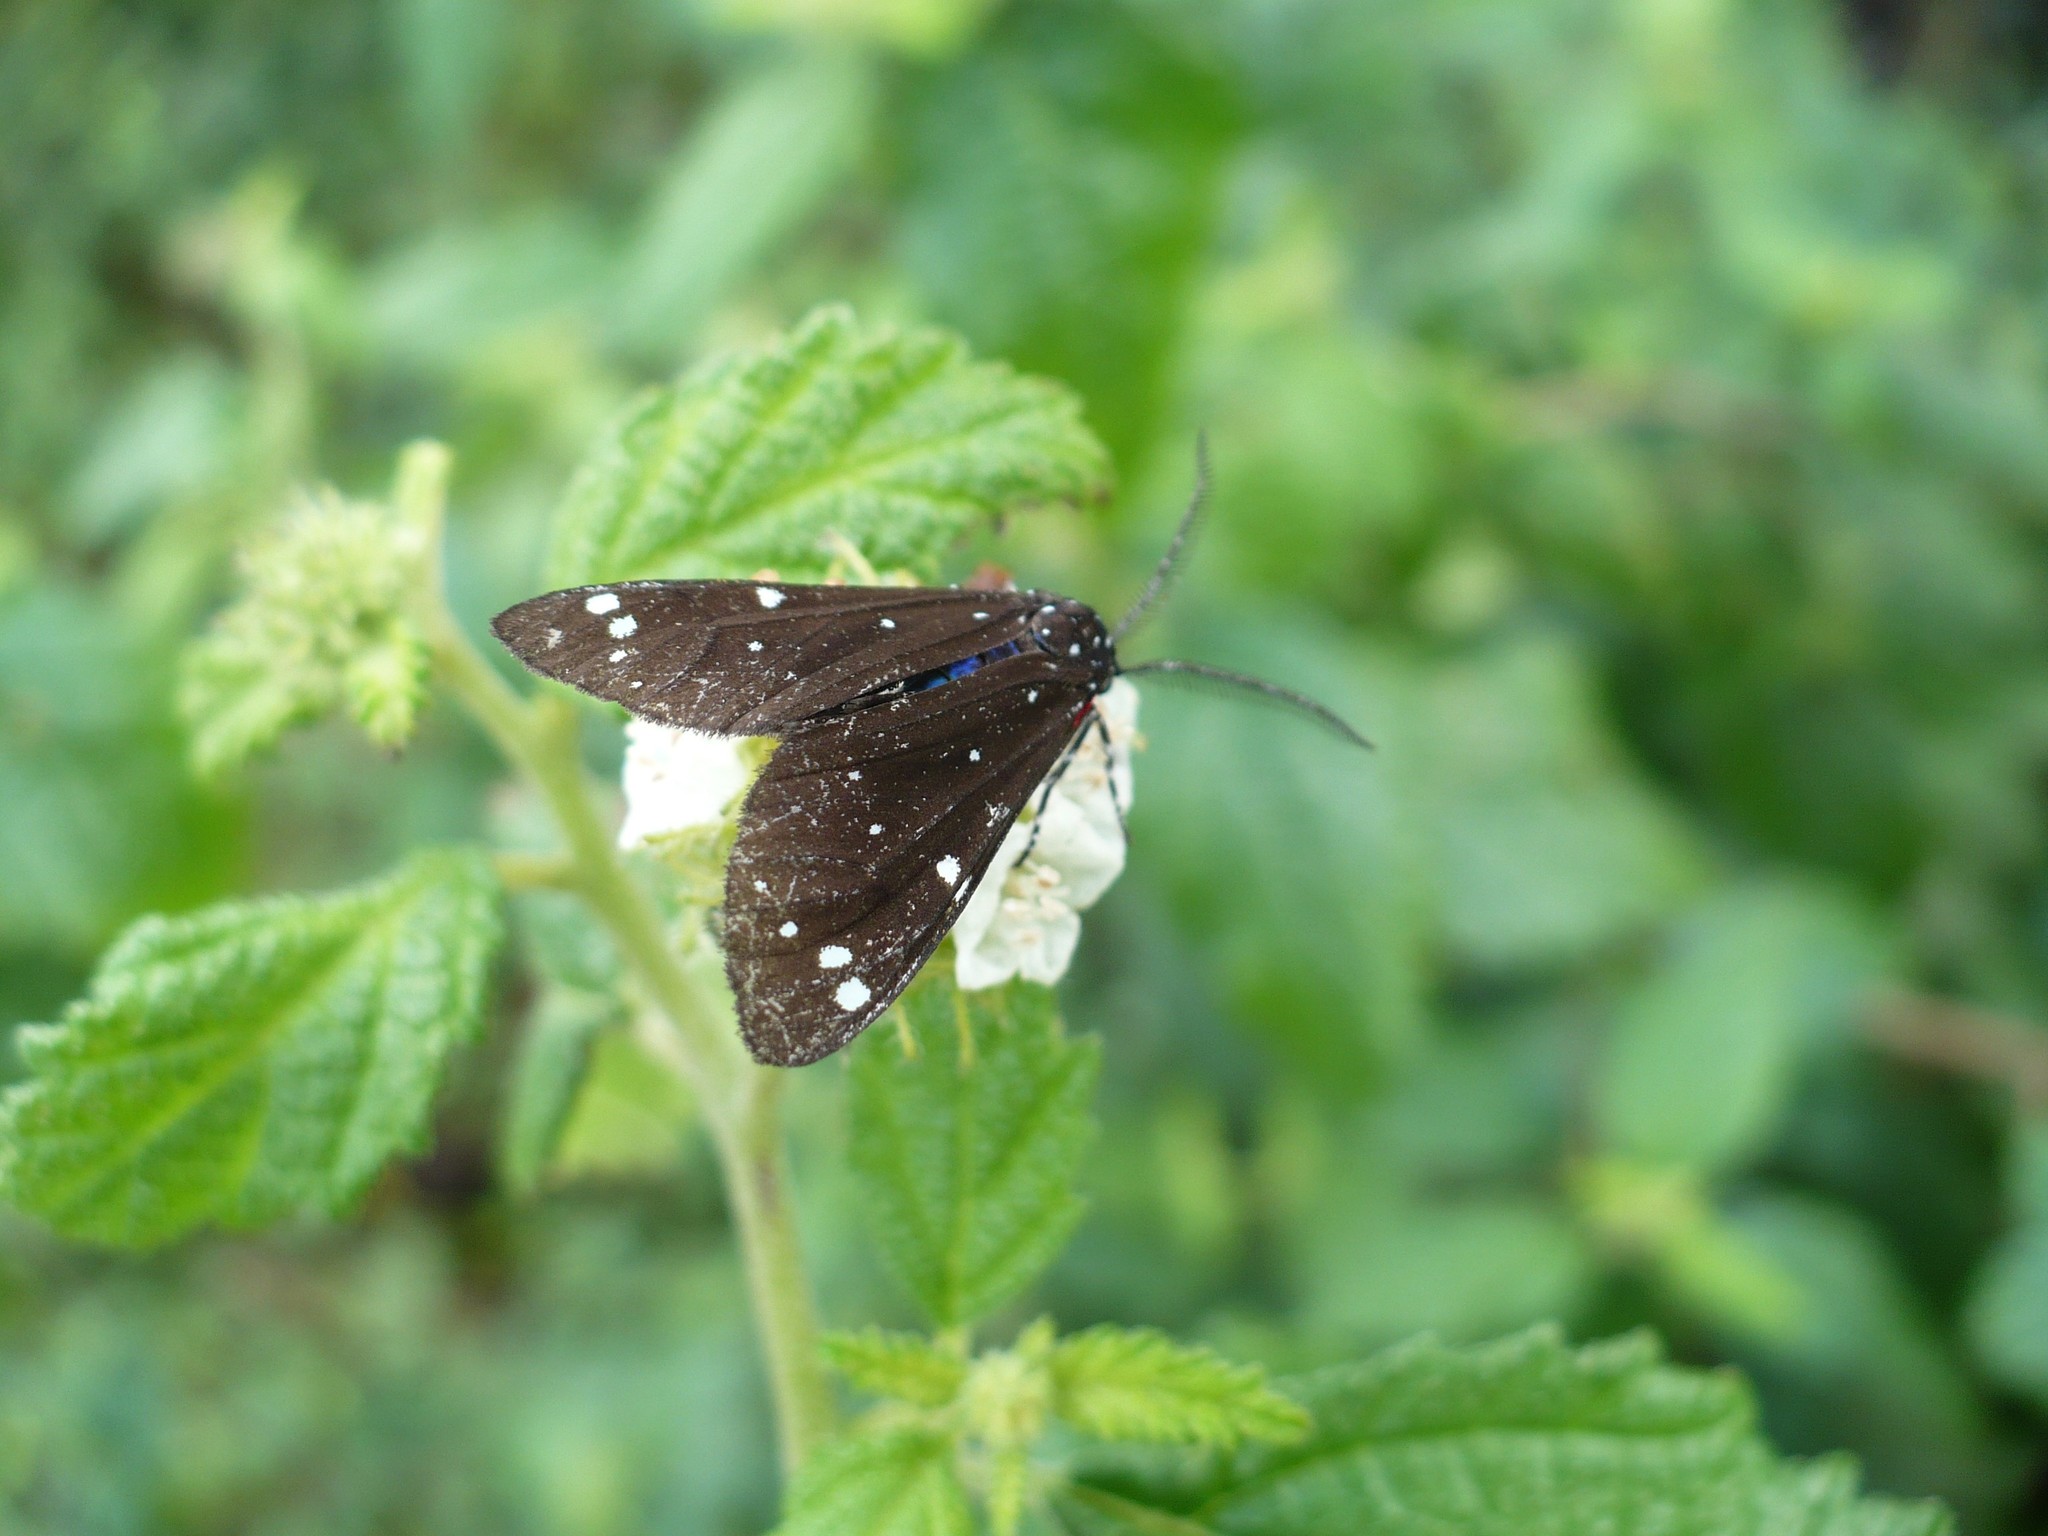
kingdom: Animalia
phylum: Arthropoda
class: Insecta
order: Lepidoptera
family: Erebidae
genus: Ctenuchidia
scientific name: Ctenuchidia virgo
